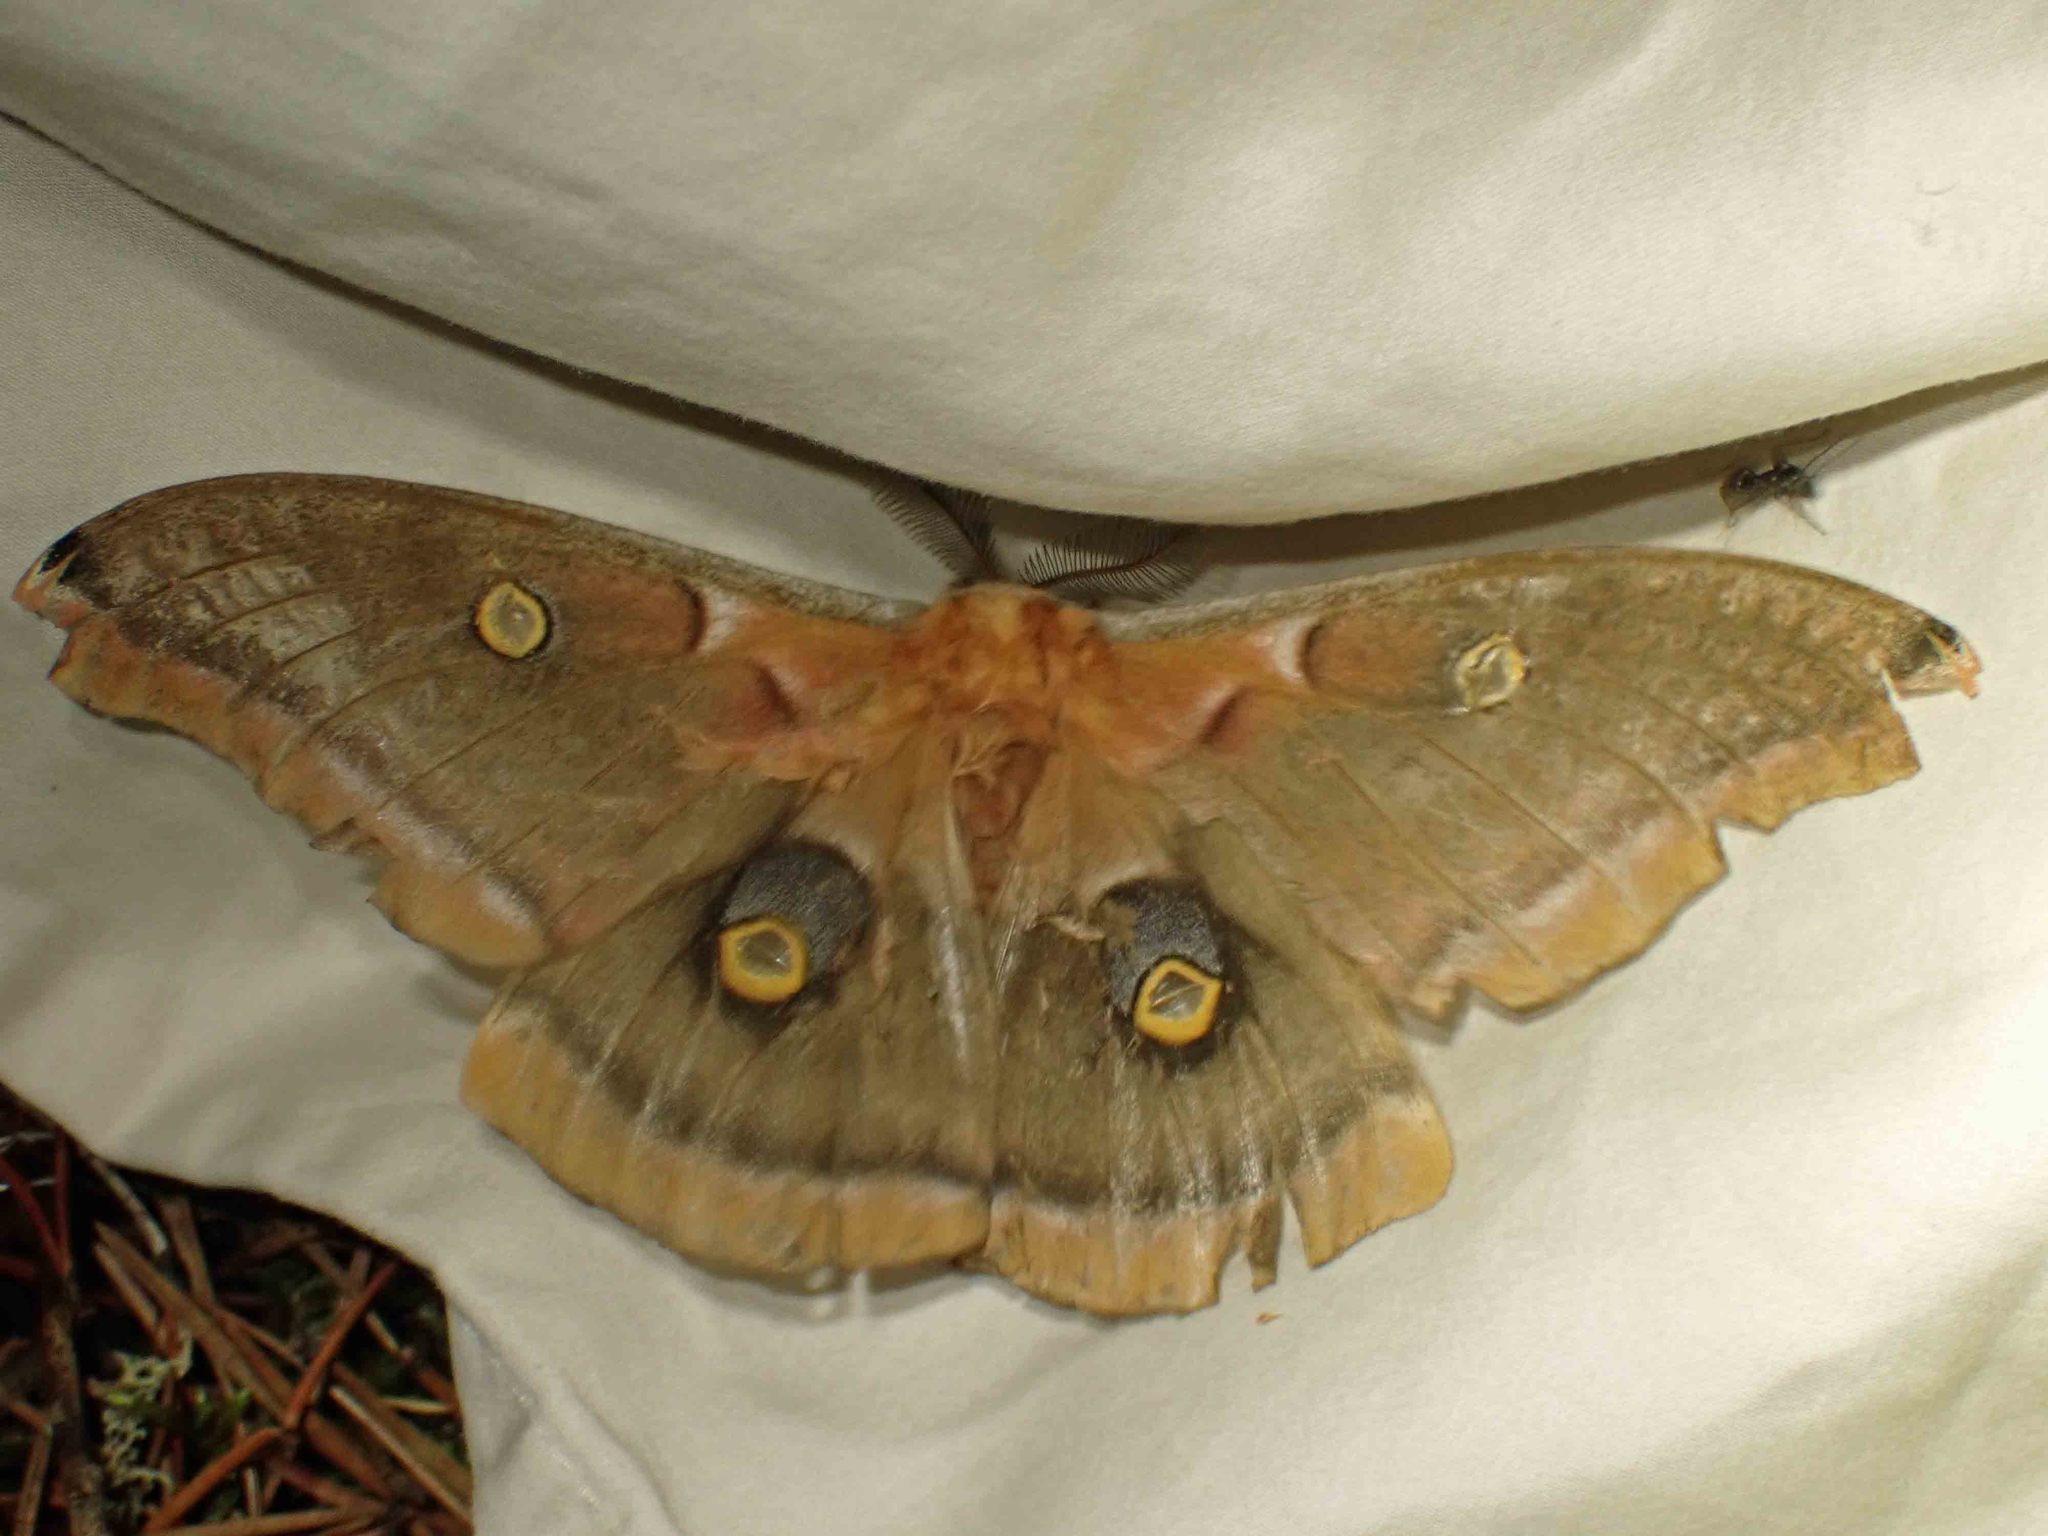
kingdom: Animalia
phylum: Arthropoda
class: Insecta
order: Lepidoptera
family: Saturniidae
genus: Antheraea
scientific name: Antheraea polyphemus
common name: Polyphemus moth
